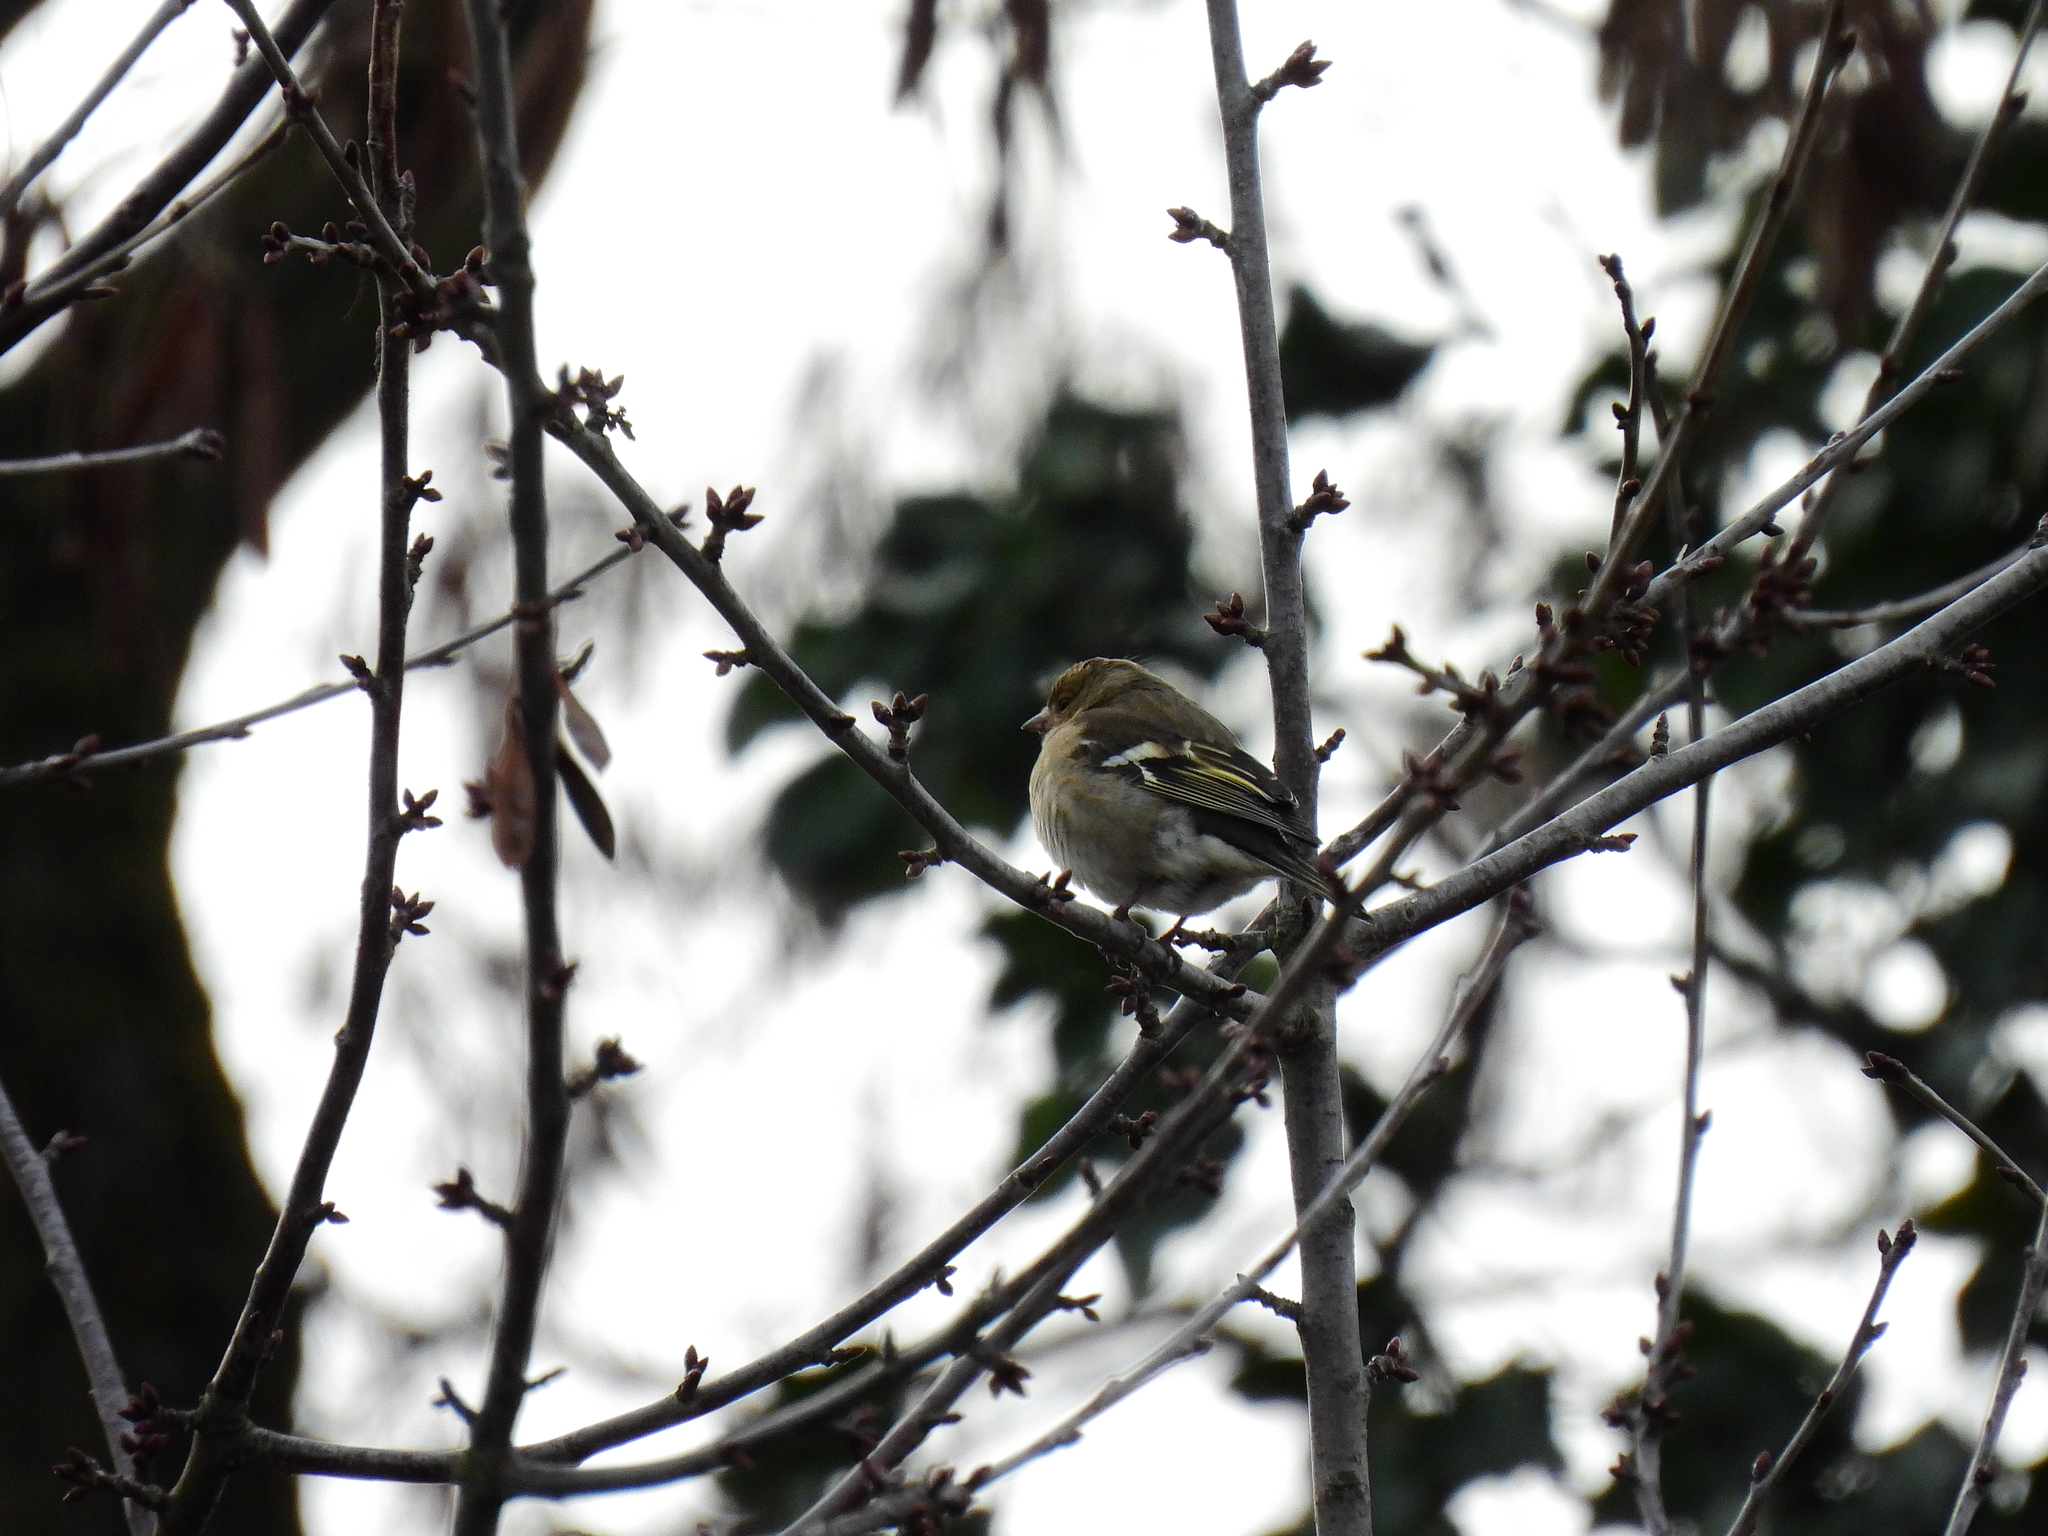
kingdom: Animalia
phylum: Chordata
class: Aves
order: Passeriformes
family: Fringillidae
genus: Fringilla
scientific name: Fringilla coelebs
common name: Common chaffinch
